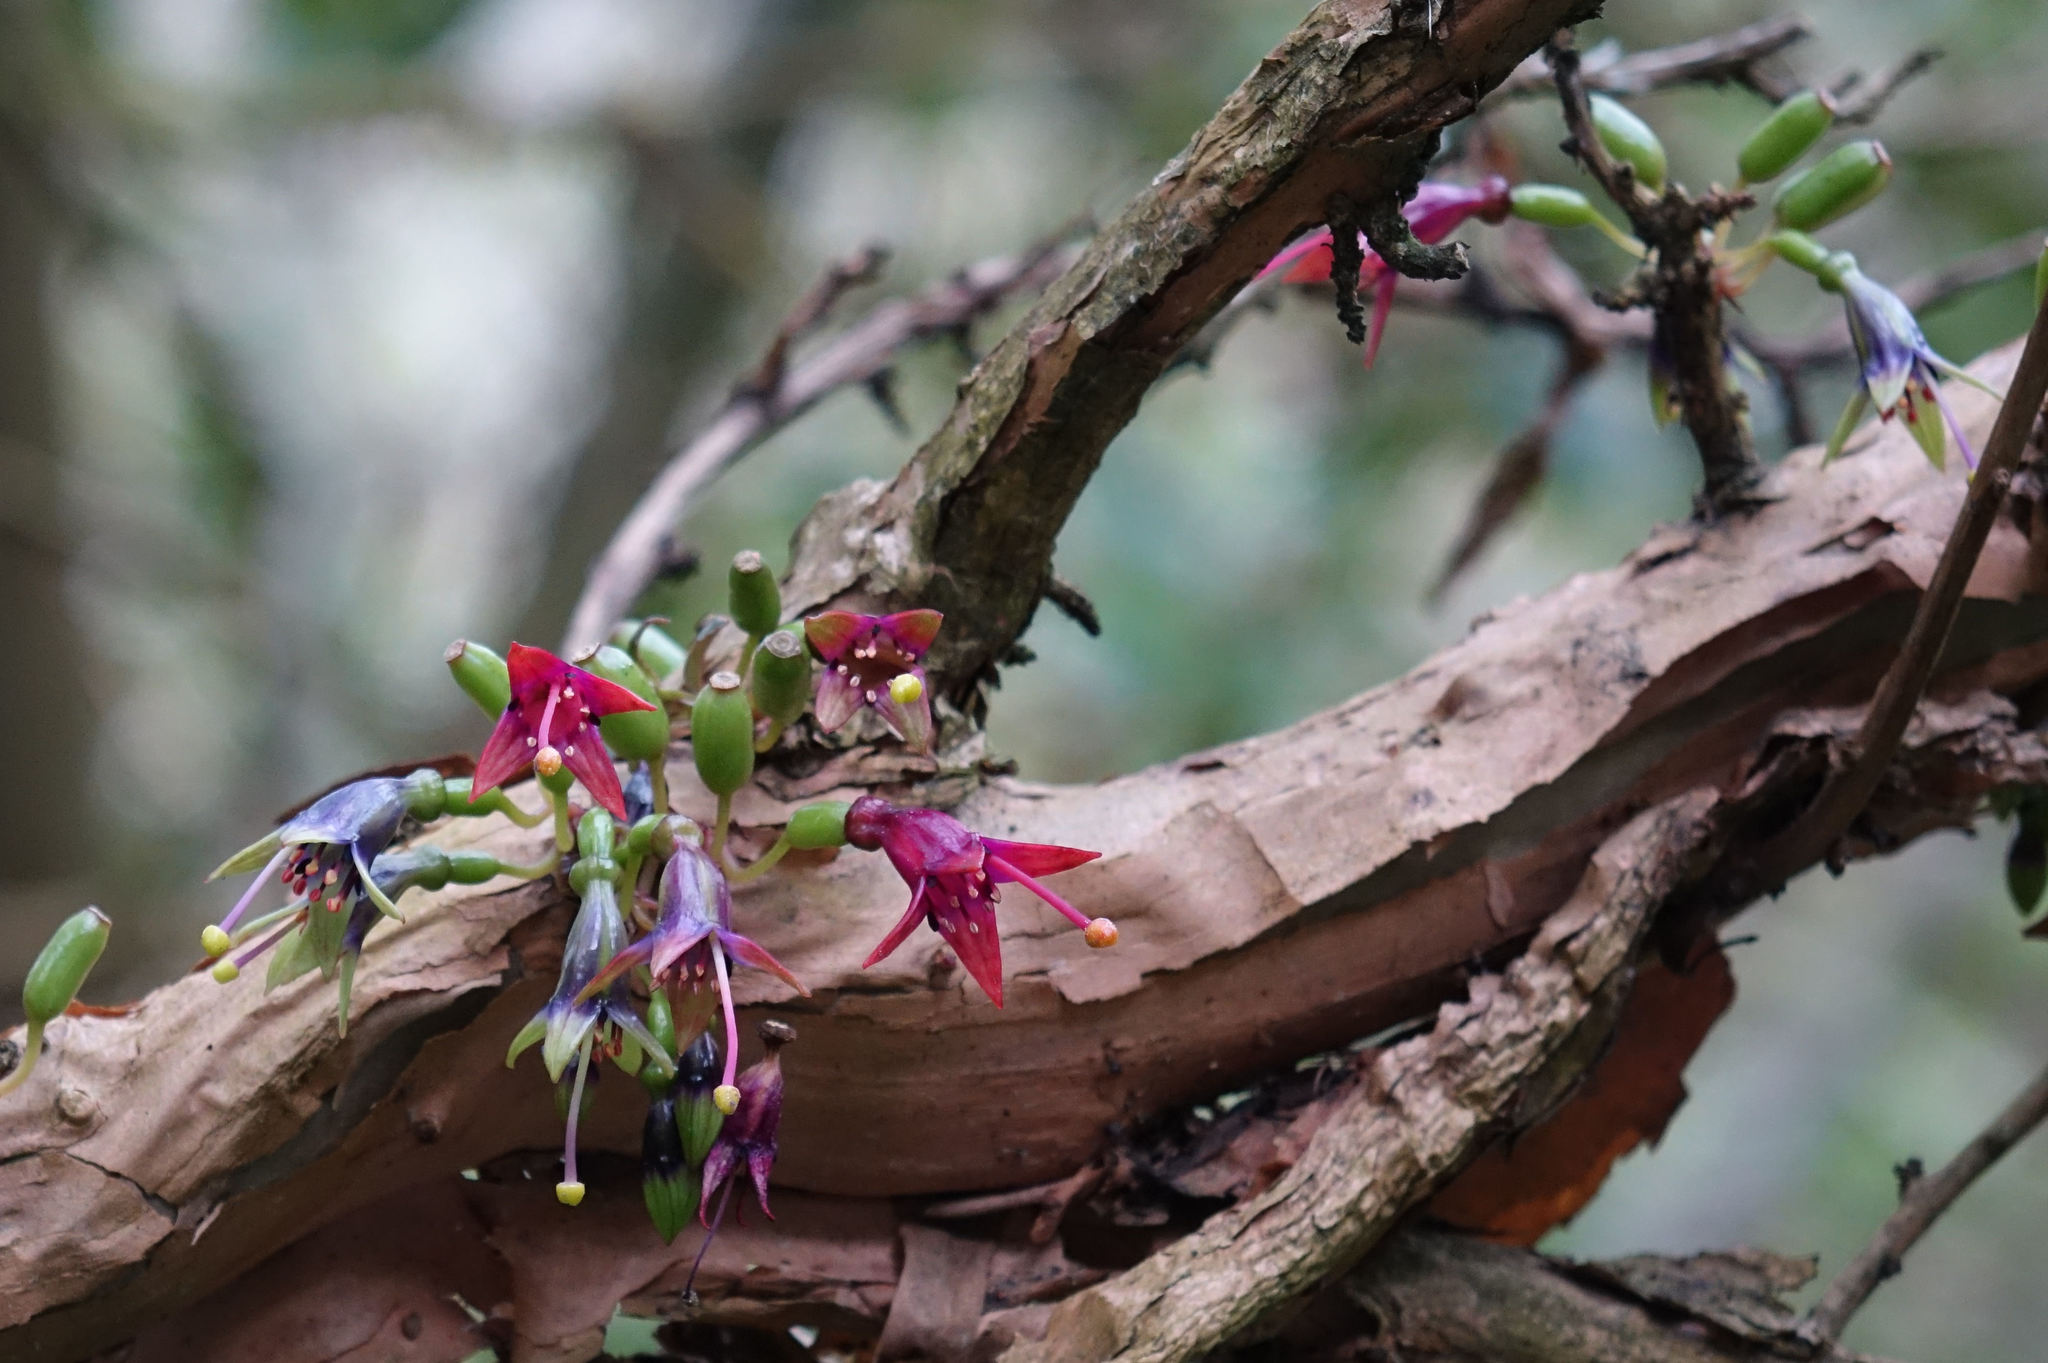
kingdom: Plantae
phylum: Tracheophyta
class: Magnoliopsida
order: Myrtales
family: Onagraceae
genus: Fuchsia
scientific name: Fuchsia excorticata
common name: Tree fuchsia
